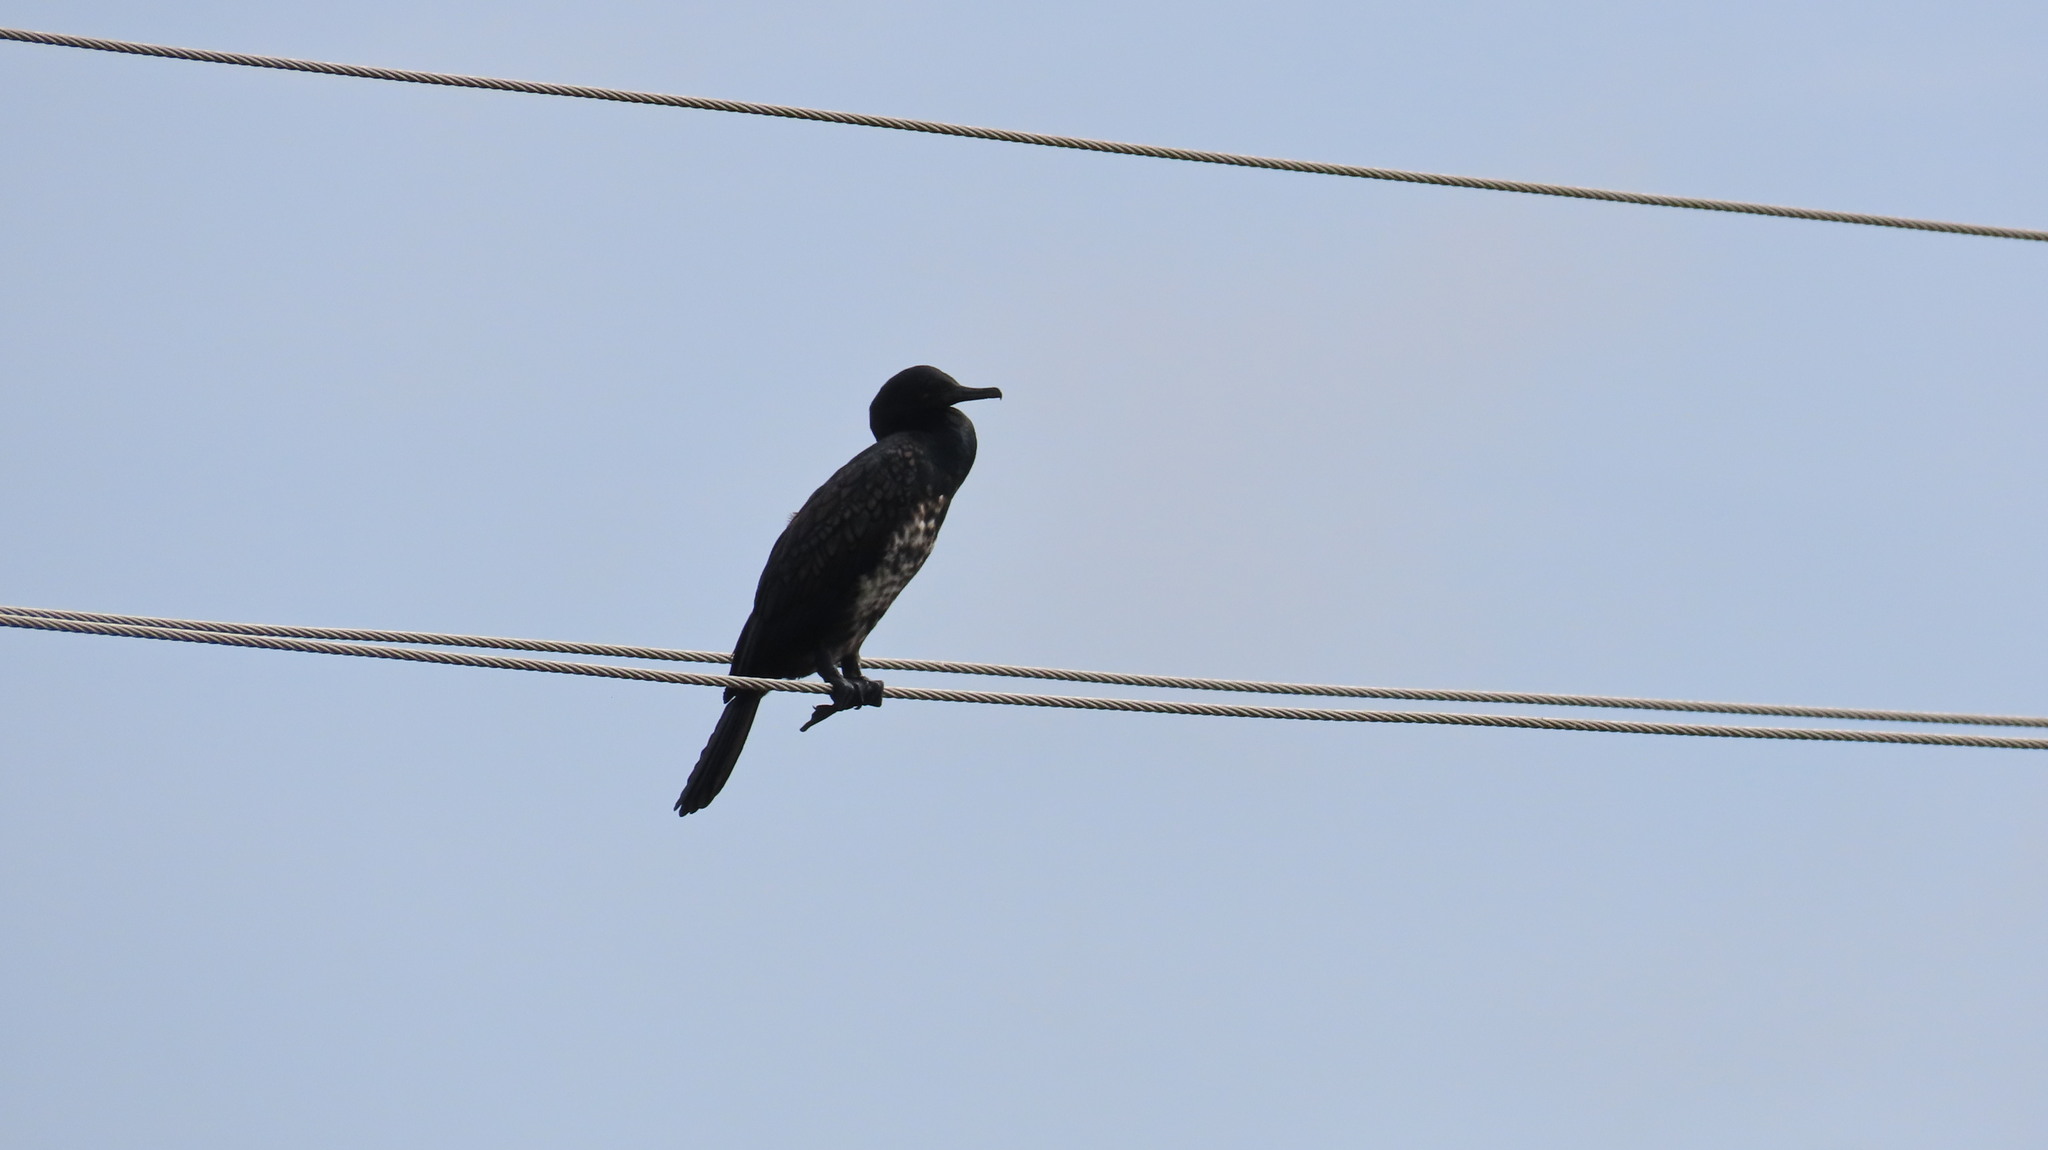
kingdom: Animalia
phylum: Chordata
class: Aves
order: Suliformes
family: Phalacrocoracidae
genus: Phalacrocorax
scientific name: Phalacrocorax fuscicollis
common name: Indian cormorant
